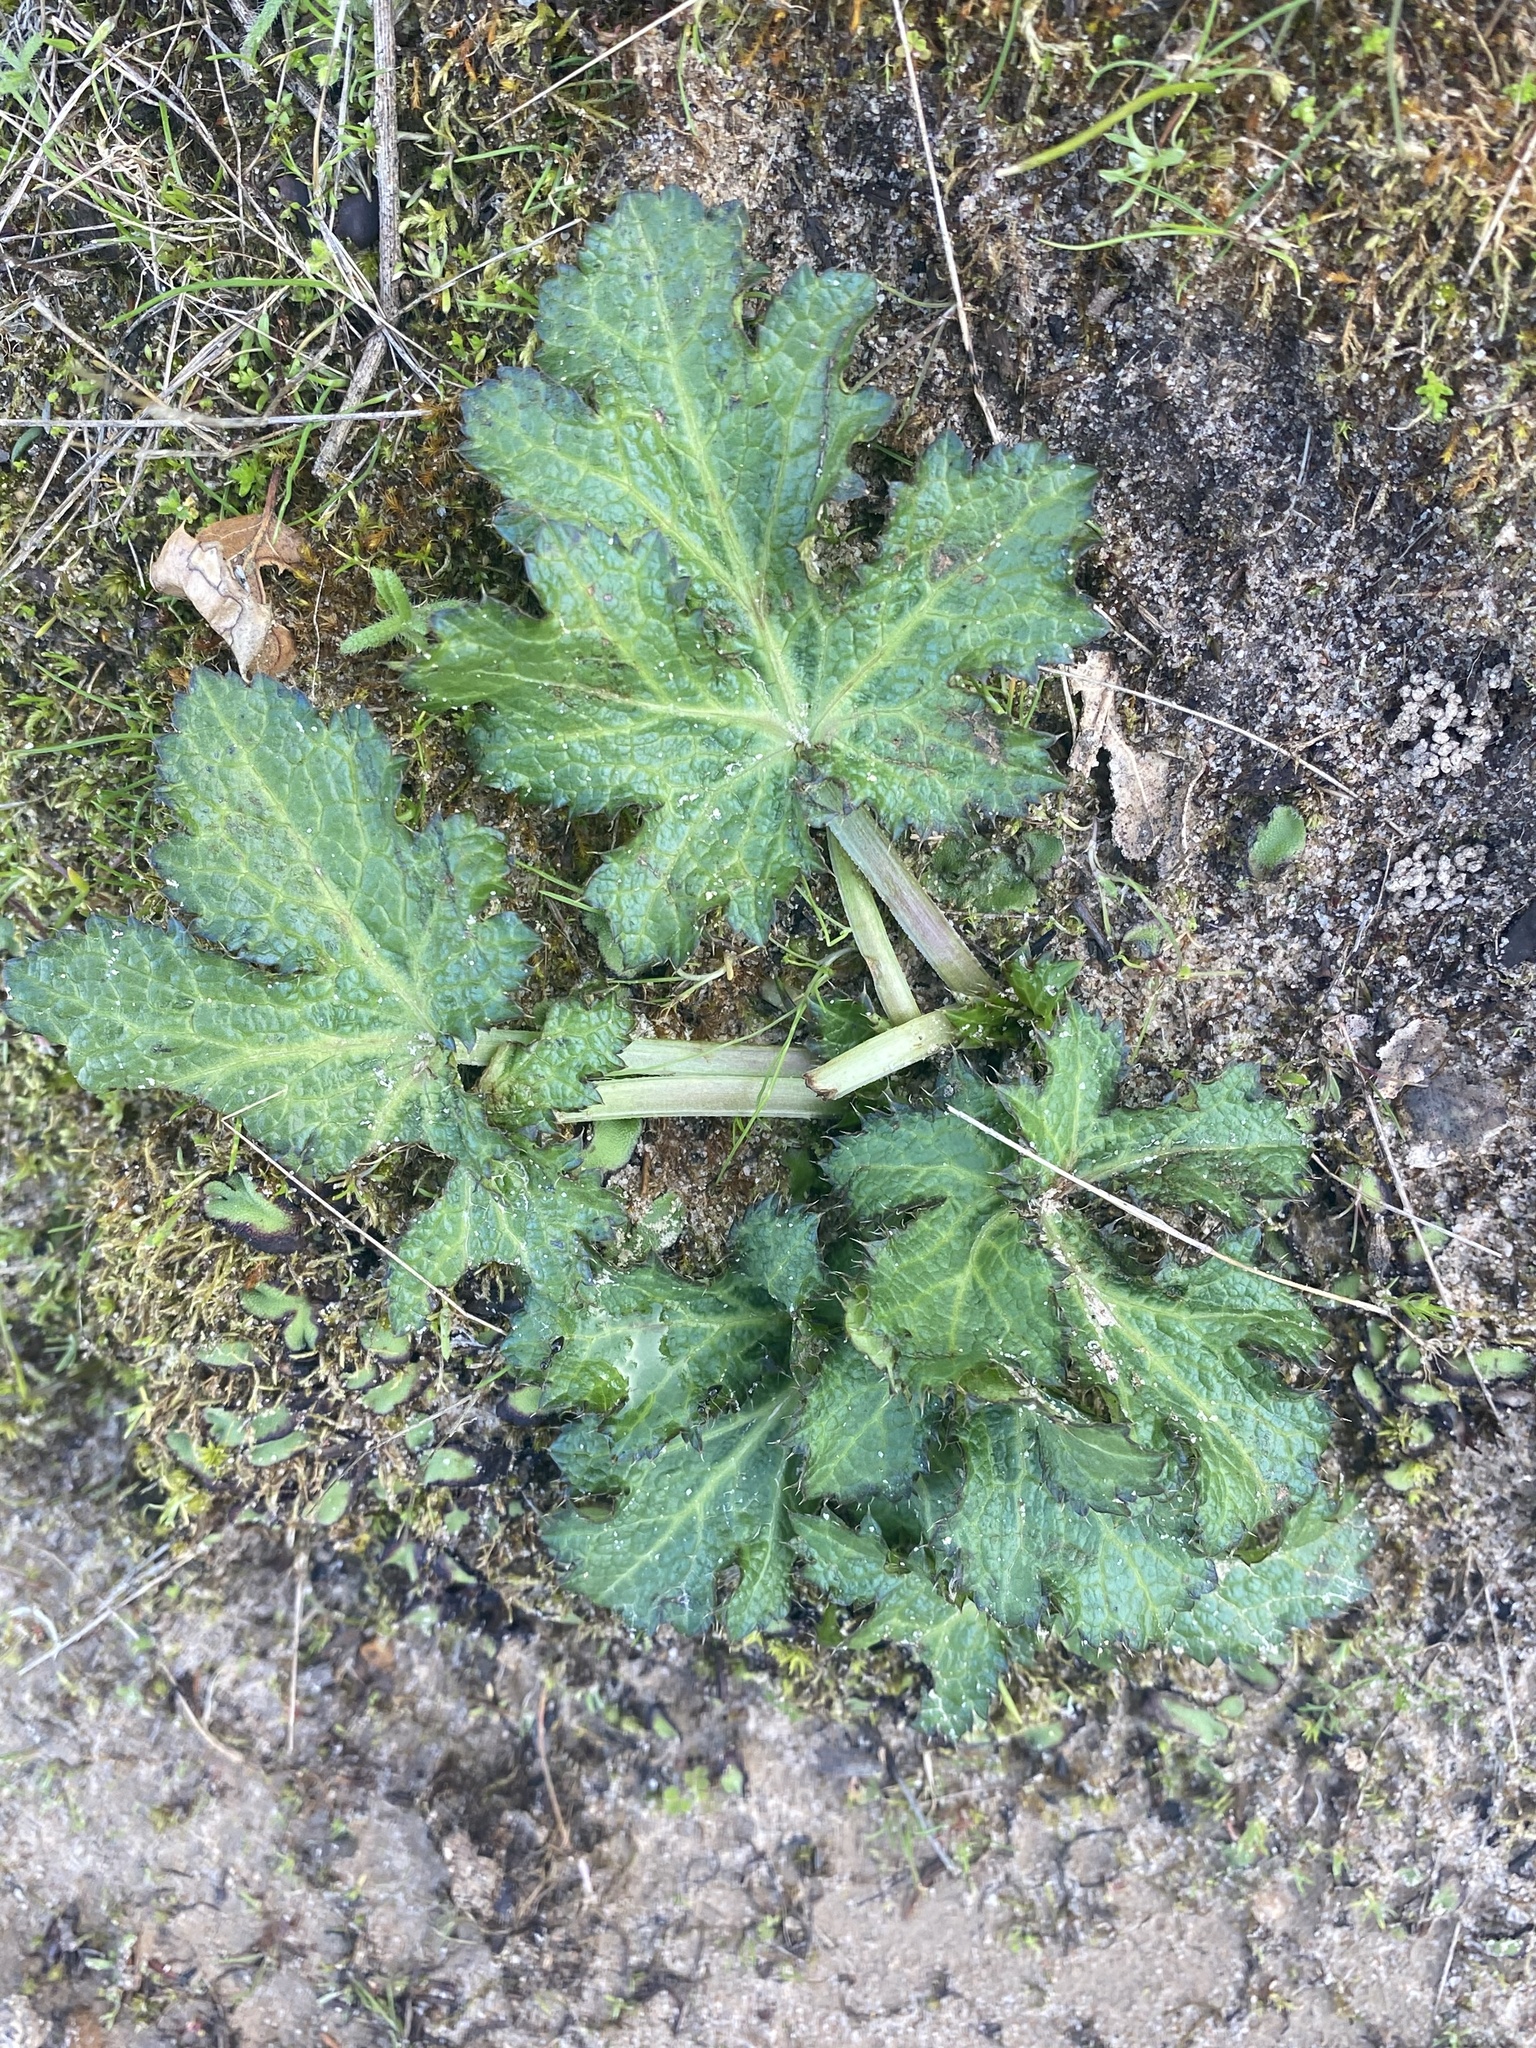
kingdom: Plantae
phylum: Tracheophyta
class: Magnoliopsida
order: Apiales
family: Apiaceae
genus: Sanicula
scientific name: Sanicula crassicaulis
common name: Western snakeroot
